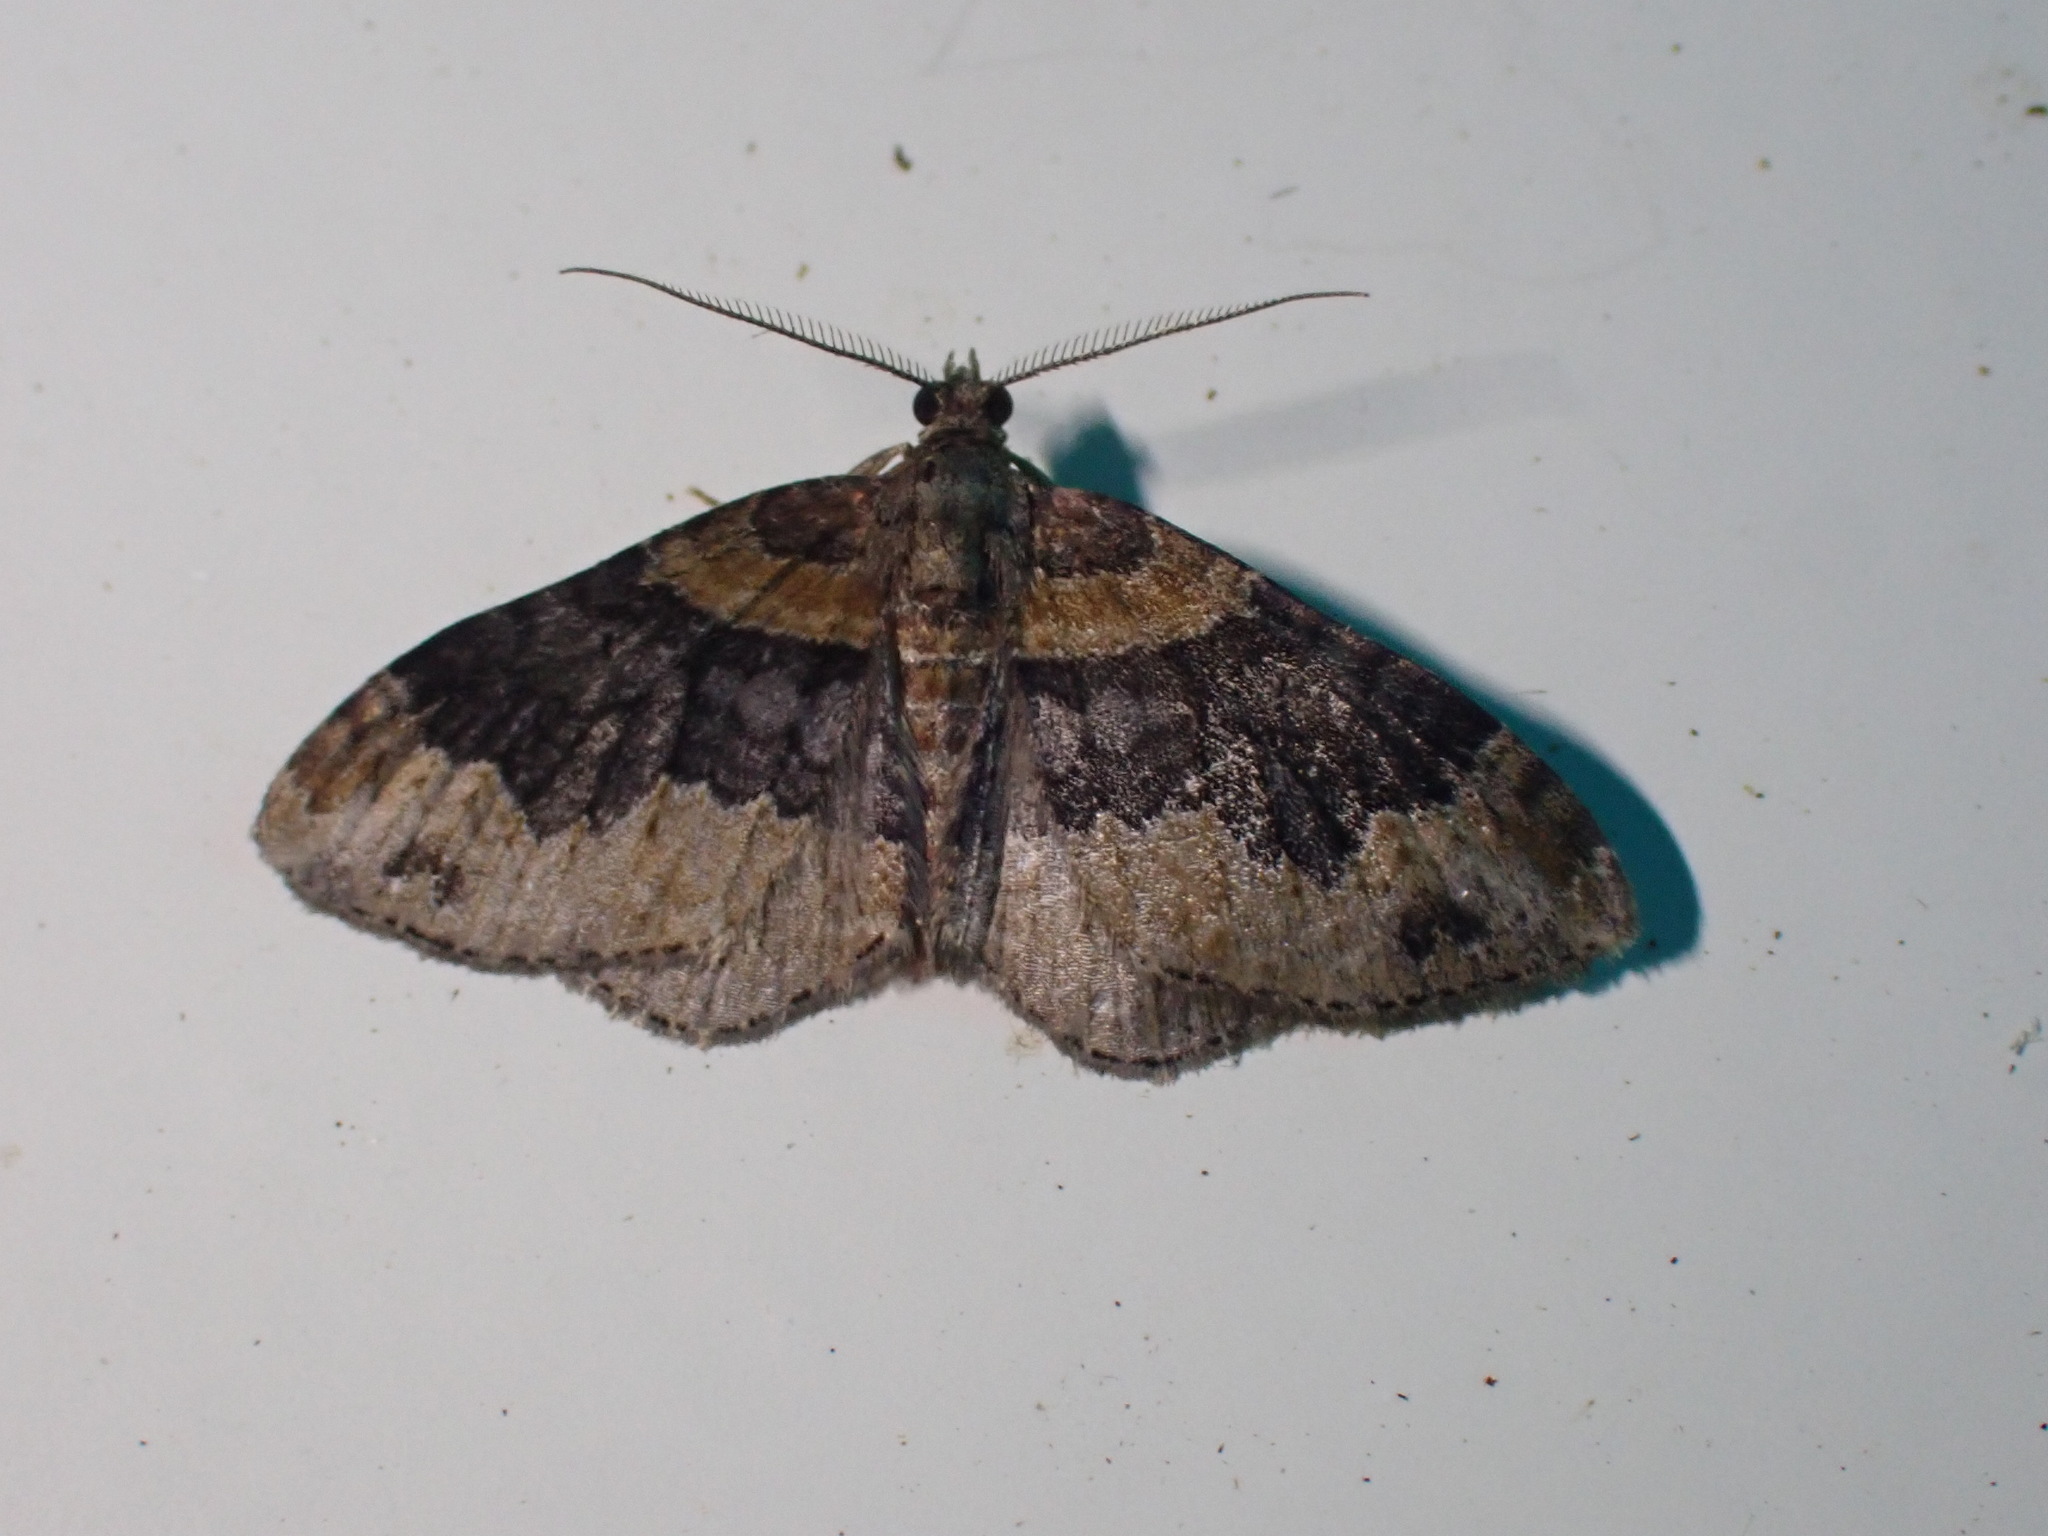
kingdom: Animalia
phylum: Arthropoda
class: Insecta
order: Lepidoptera
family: Geometridae
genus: Xanthorhoe
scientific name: Xanthorhoe ferrugata
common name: Dark-barred twin-spot carpet
